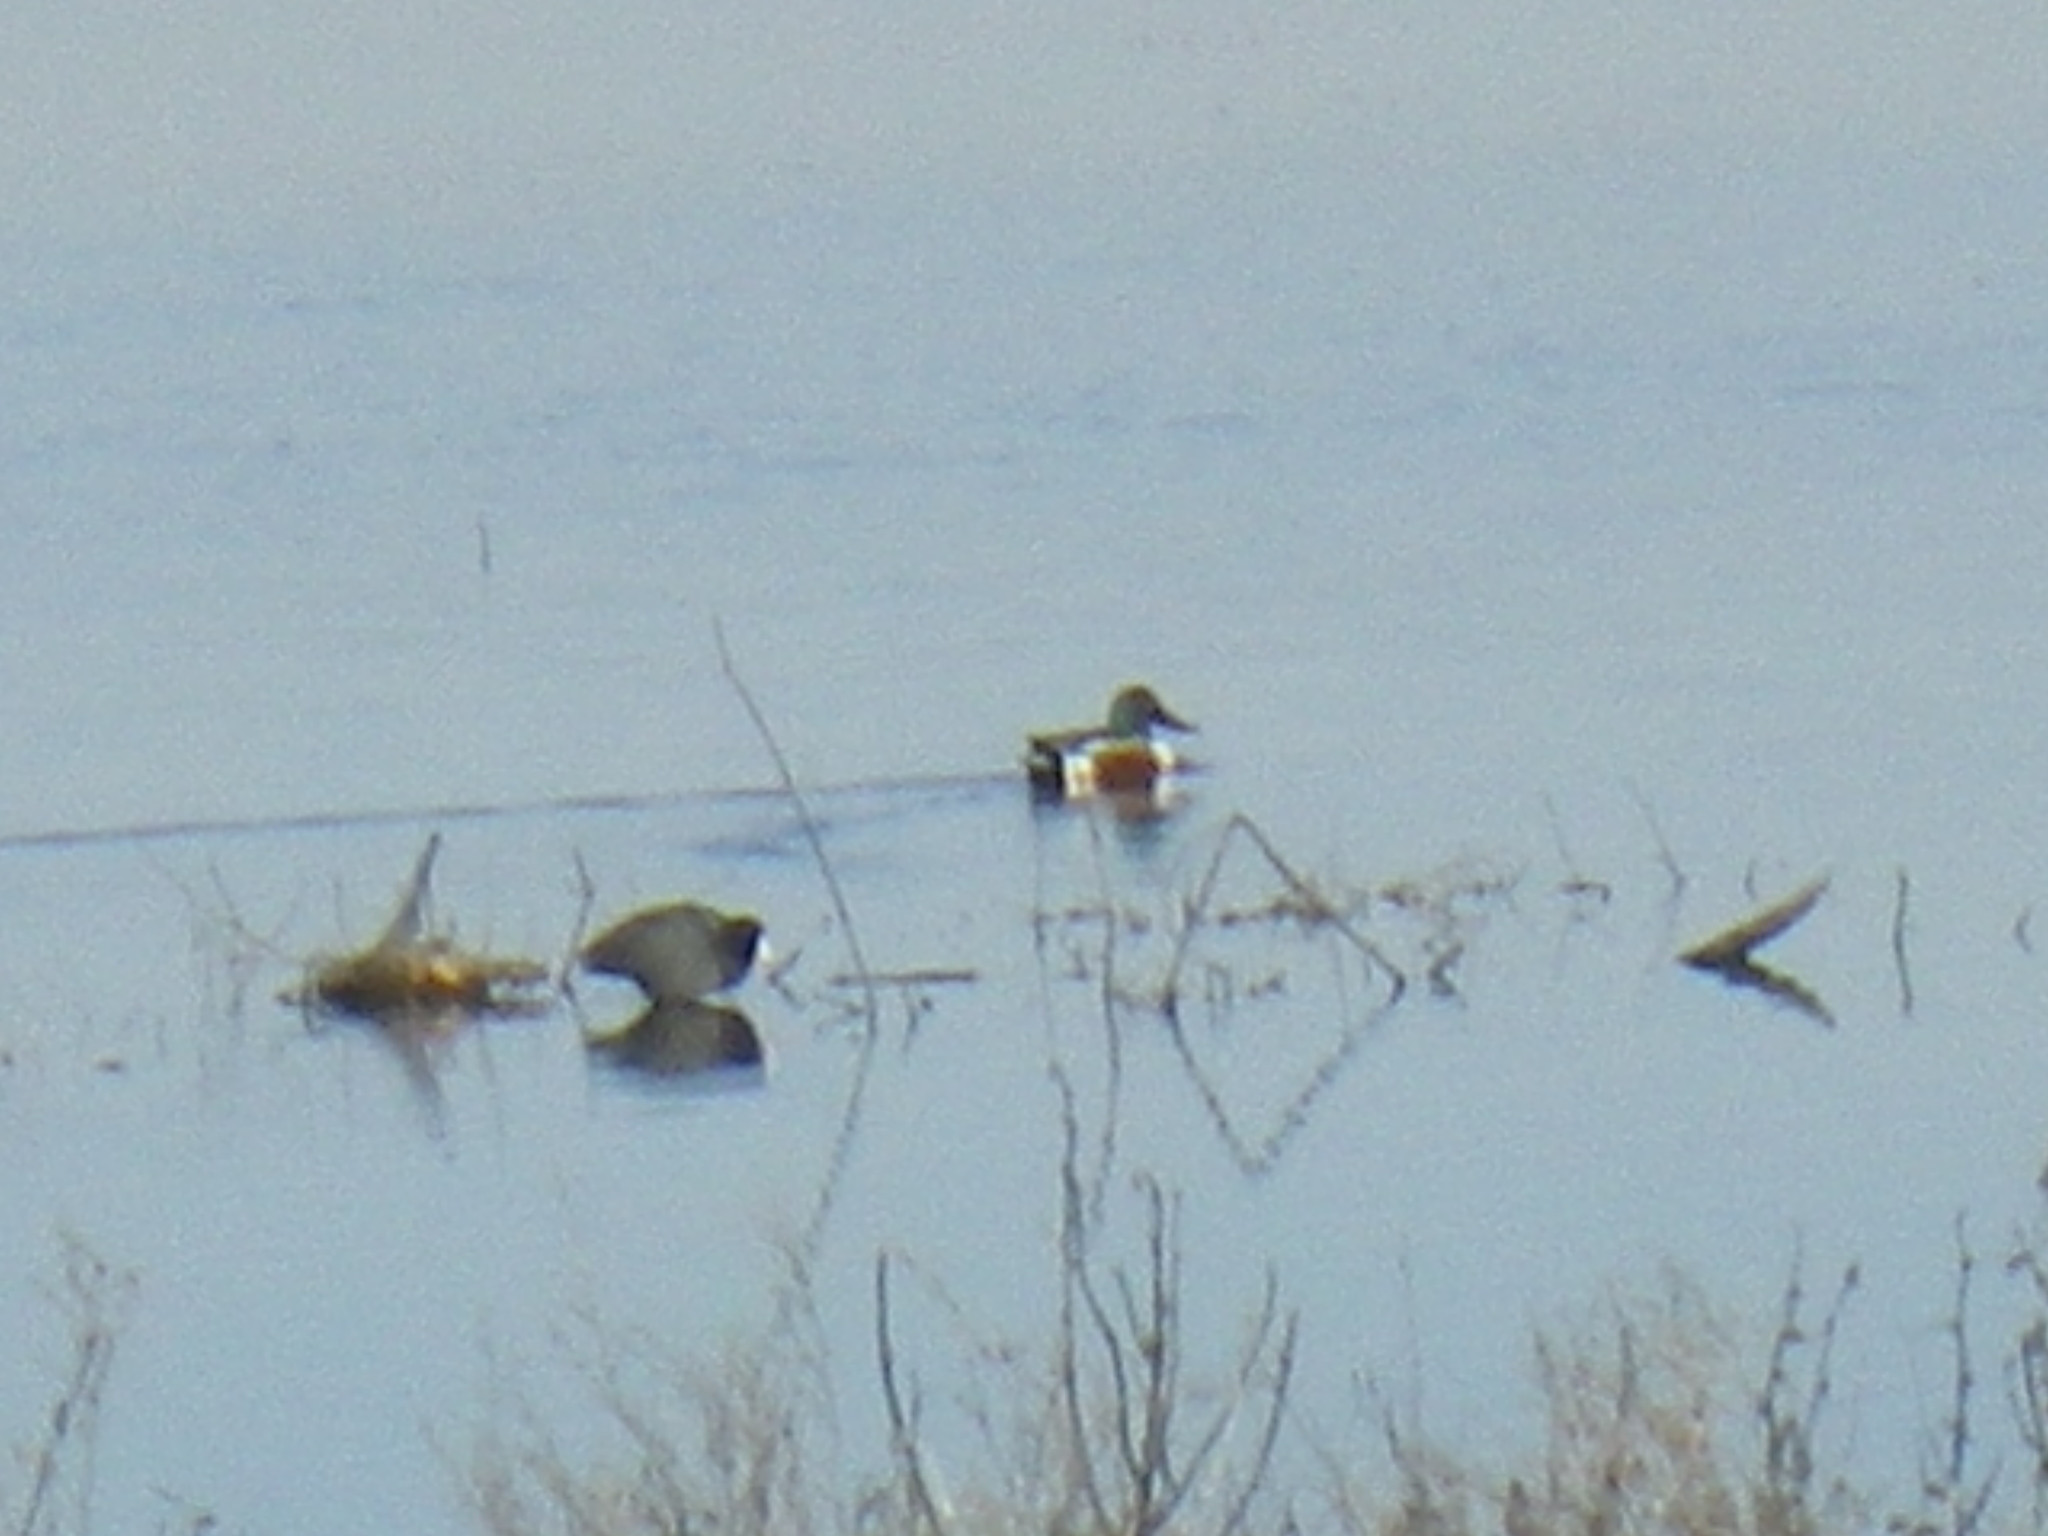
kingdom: Animalia
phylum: Chordata
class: Aves
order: Anseriformes
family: Anatidae
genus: Spatula
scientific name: Spatula clypeata
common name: Northern shoveler
